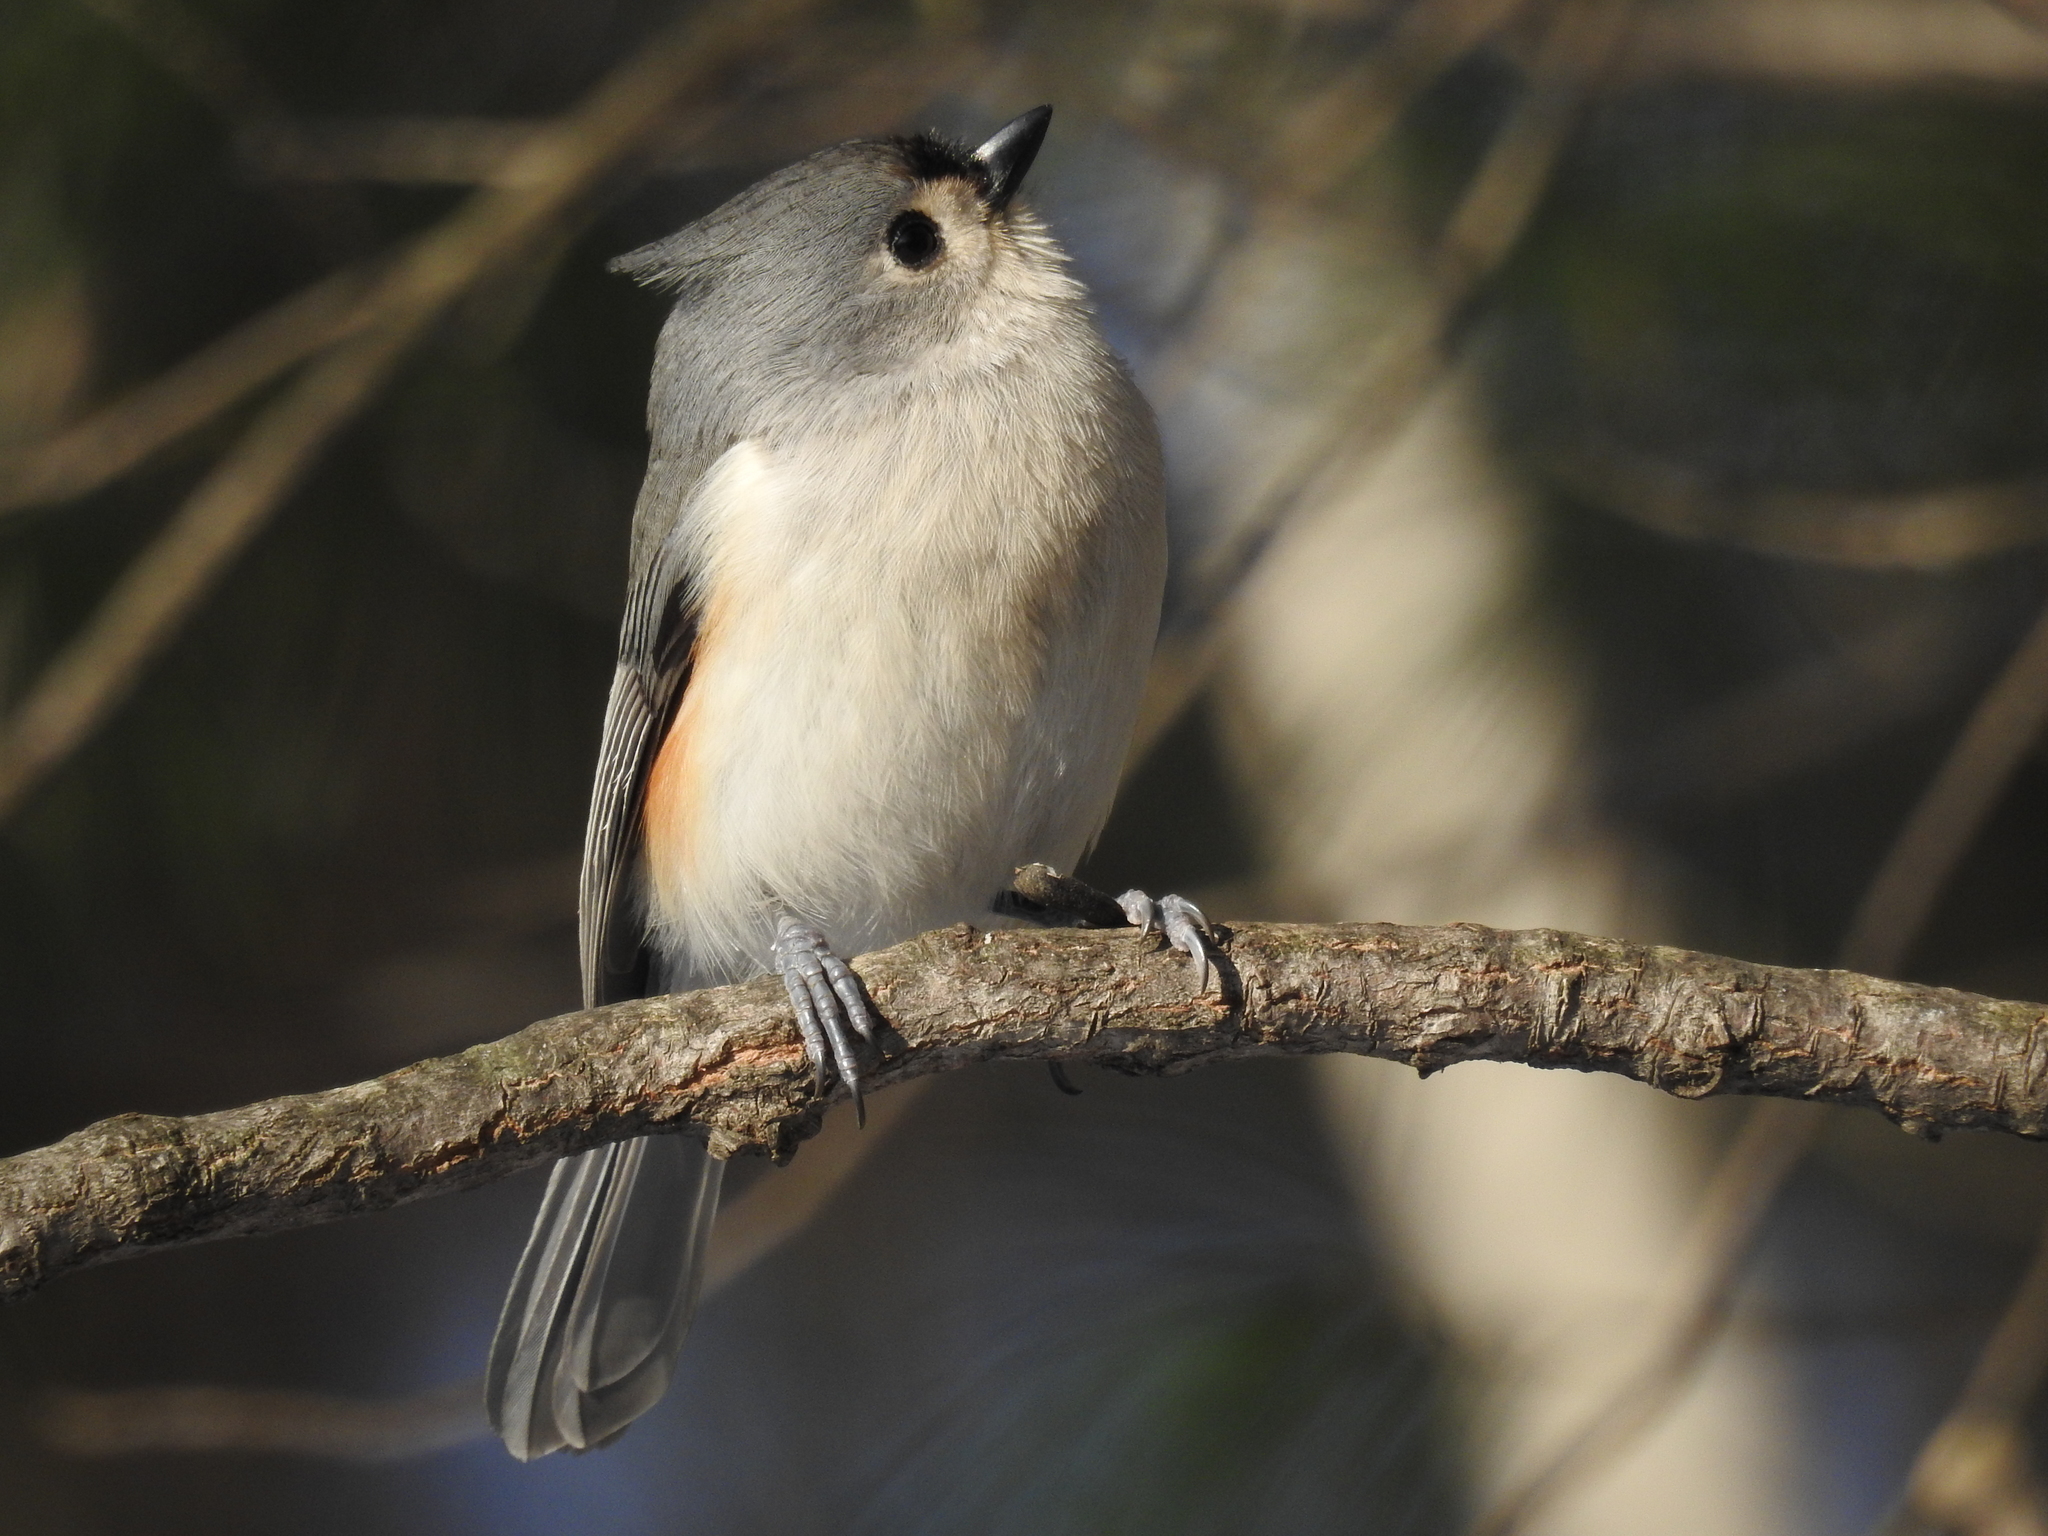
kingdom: Animalia
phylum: Chordata
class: Aves
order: Passeriformes
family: Paridae
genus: Baeolophus
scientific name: Baeolophus bicolor
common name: Tufted titmouse
